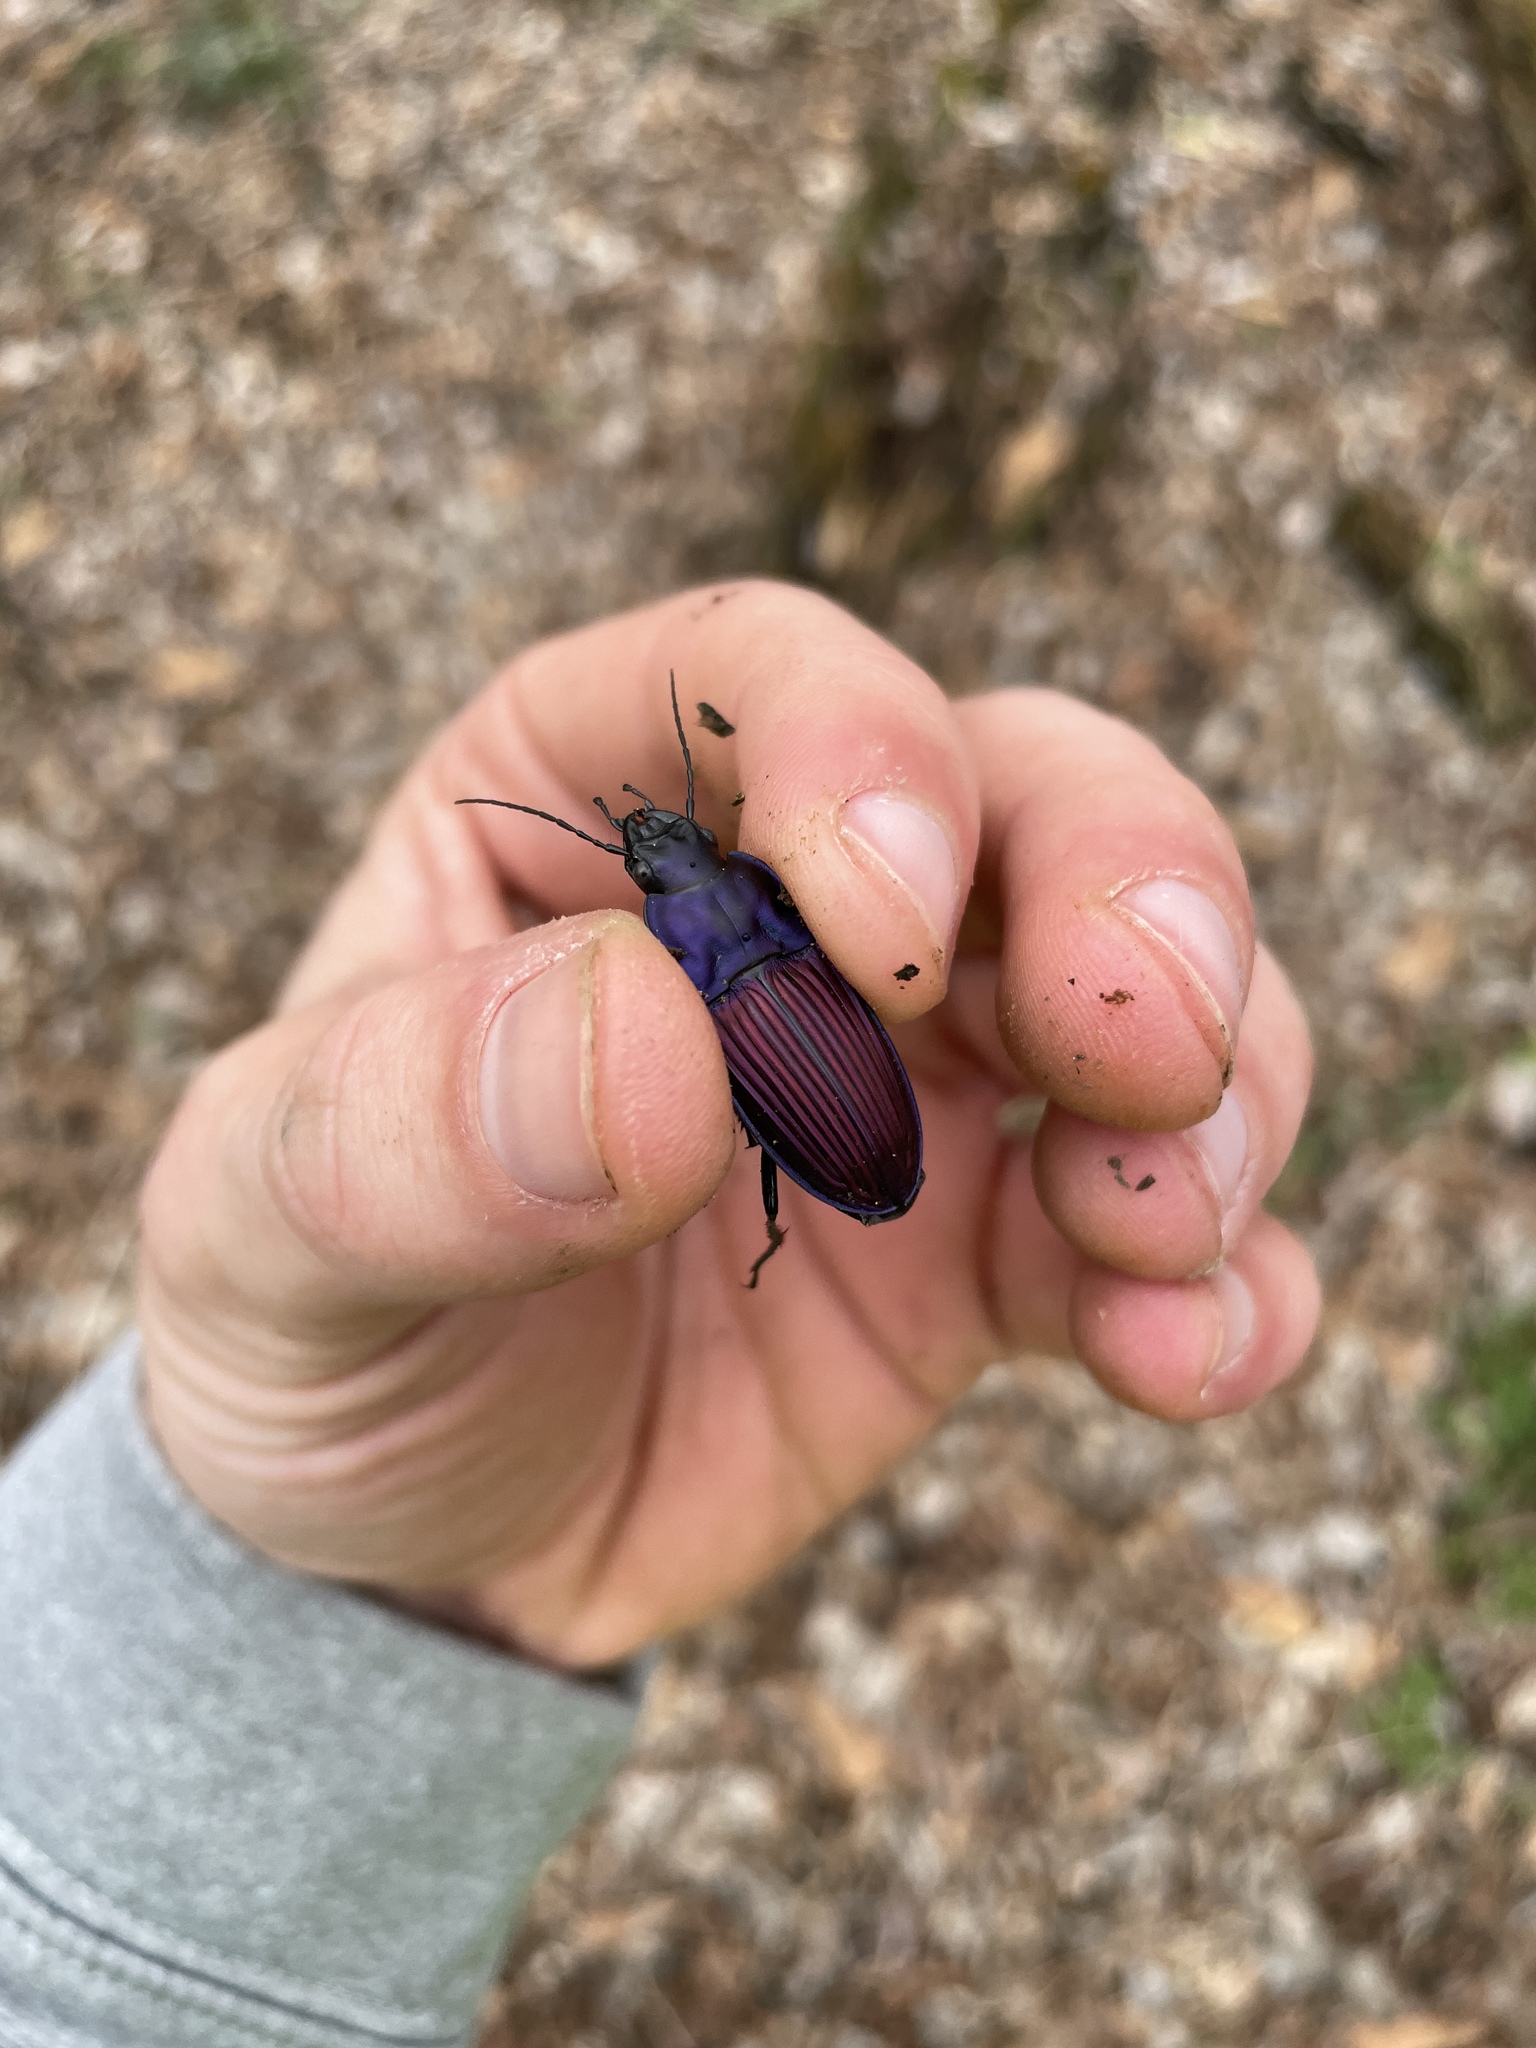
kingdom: Animalia
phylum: Arthropoda
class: Insecta
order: Coleoptera
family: Carabidae
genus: Dicaelus
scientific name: Dicaelus purpuratus
